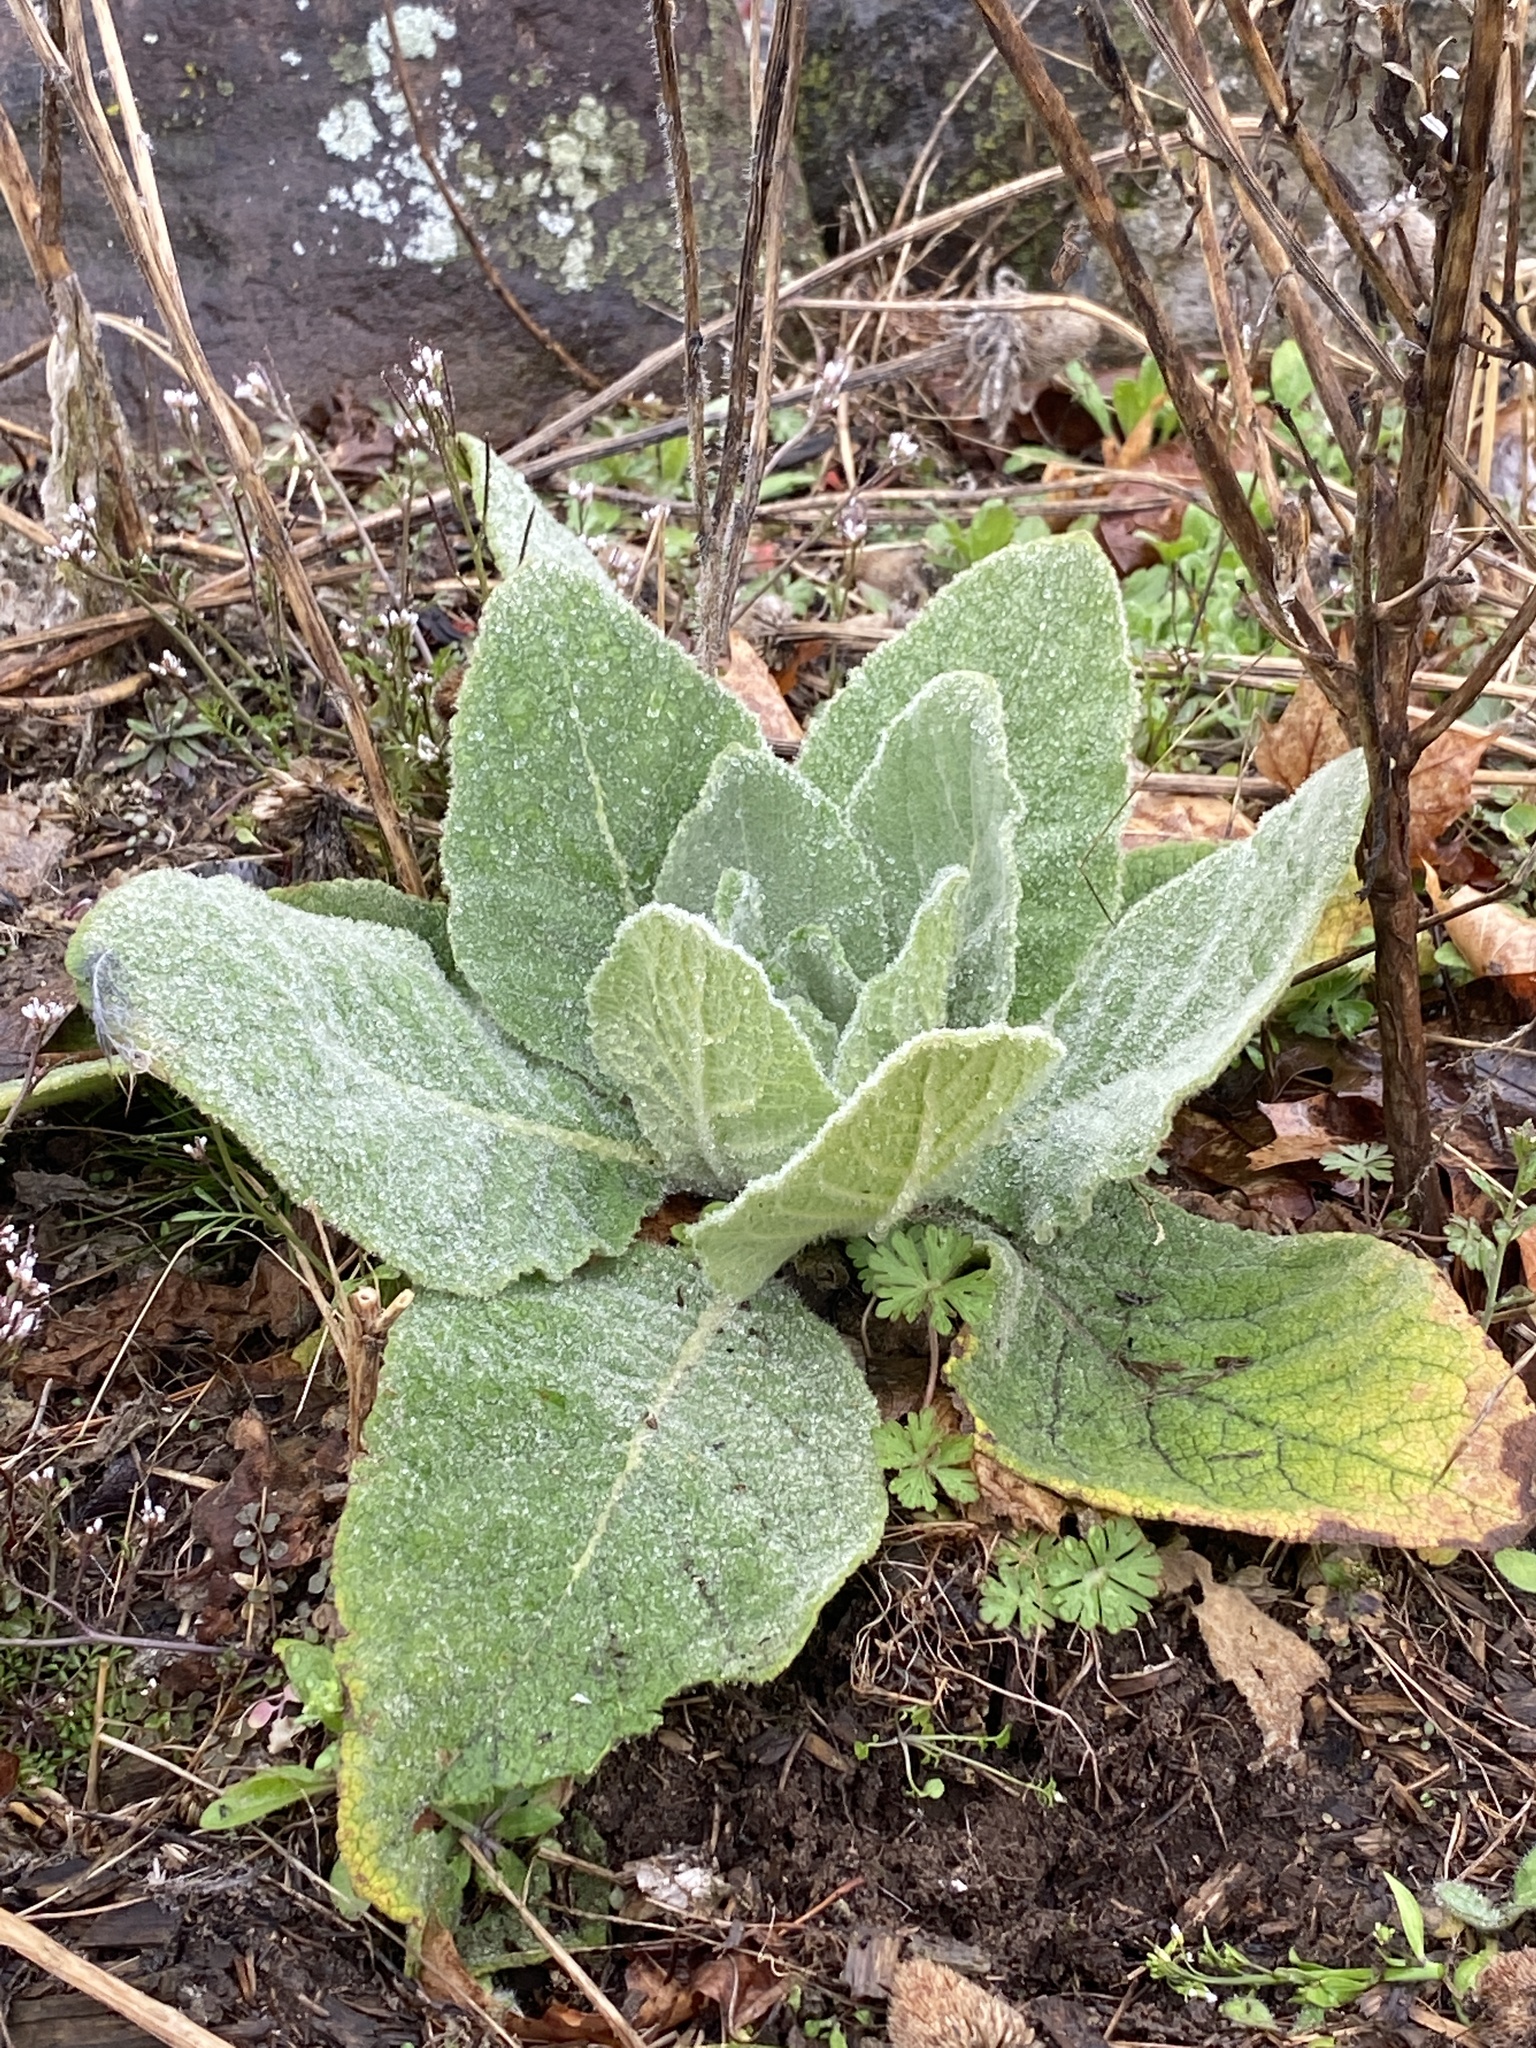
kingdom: Plantae
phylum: Tracheophyta
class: Magnoliopsida
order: Lamiales
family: Scrophulariaceae
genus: Verbascum
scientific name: Verbascum thapsus
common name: Common mullein
